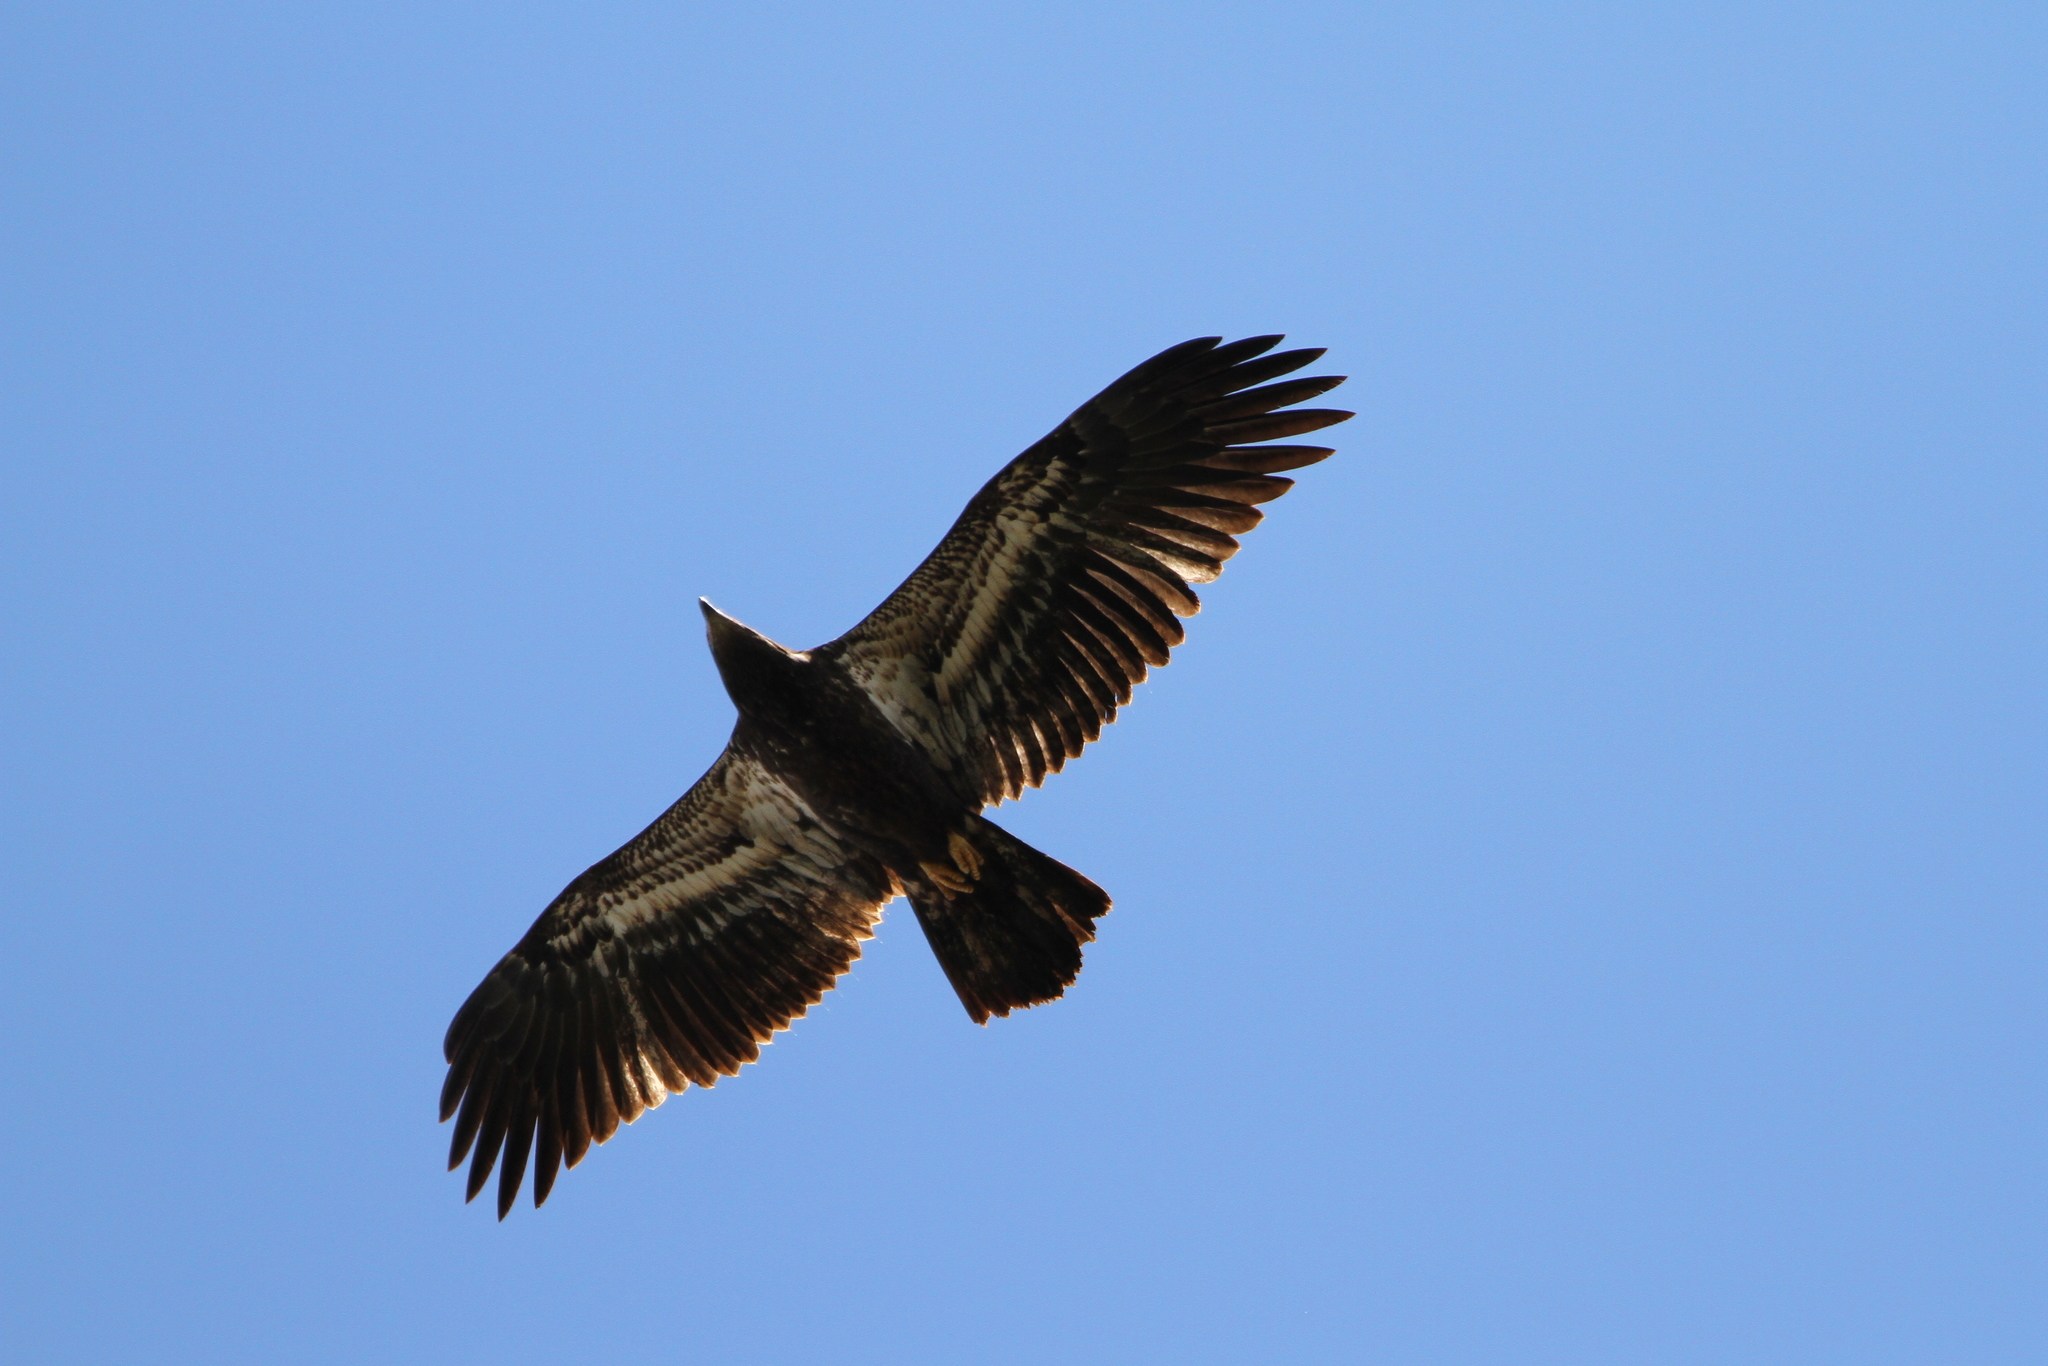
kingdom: Animalia
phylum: Chordata
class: Aves
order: Accipitriformes
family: Accipitridae
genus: Haliaeetus
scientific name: Haliaeetus leucocephalus
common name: Bald eagle
